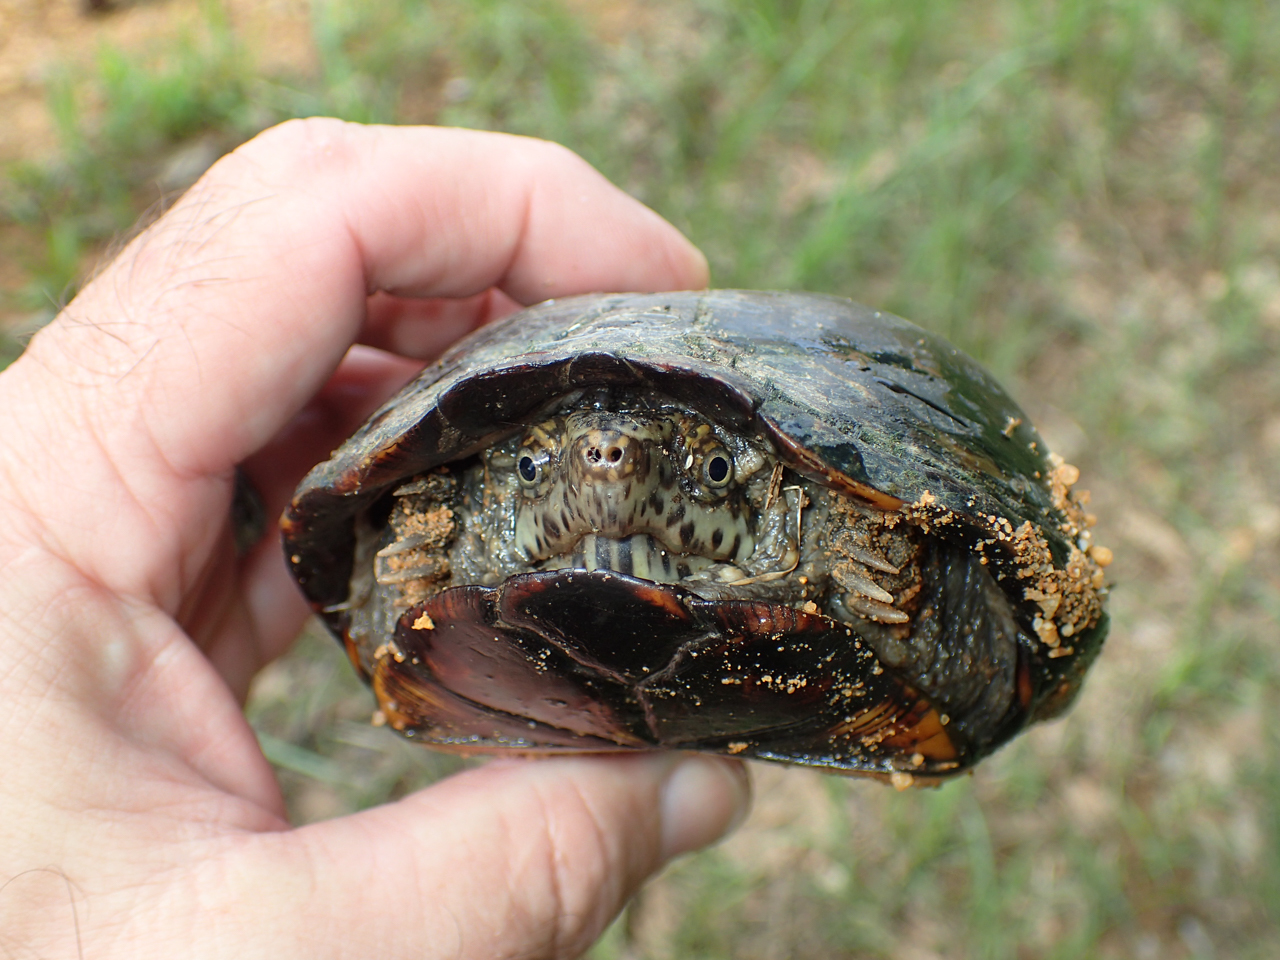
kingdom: Animalia
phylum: Chordata
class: Testudines
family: Kinosternidae
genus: Kinosternon
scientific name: Kinosternon subrubrum
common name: Eastern mud turtle
